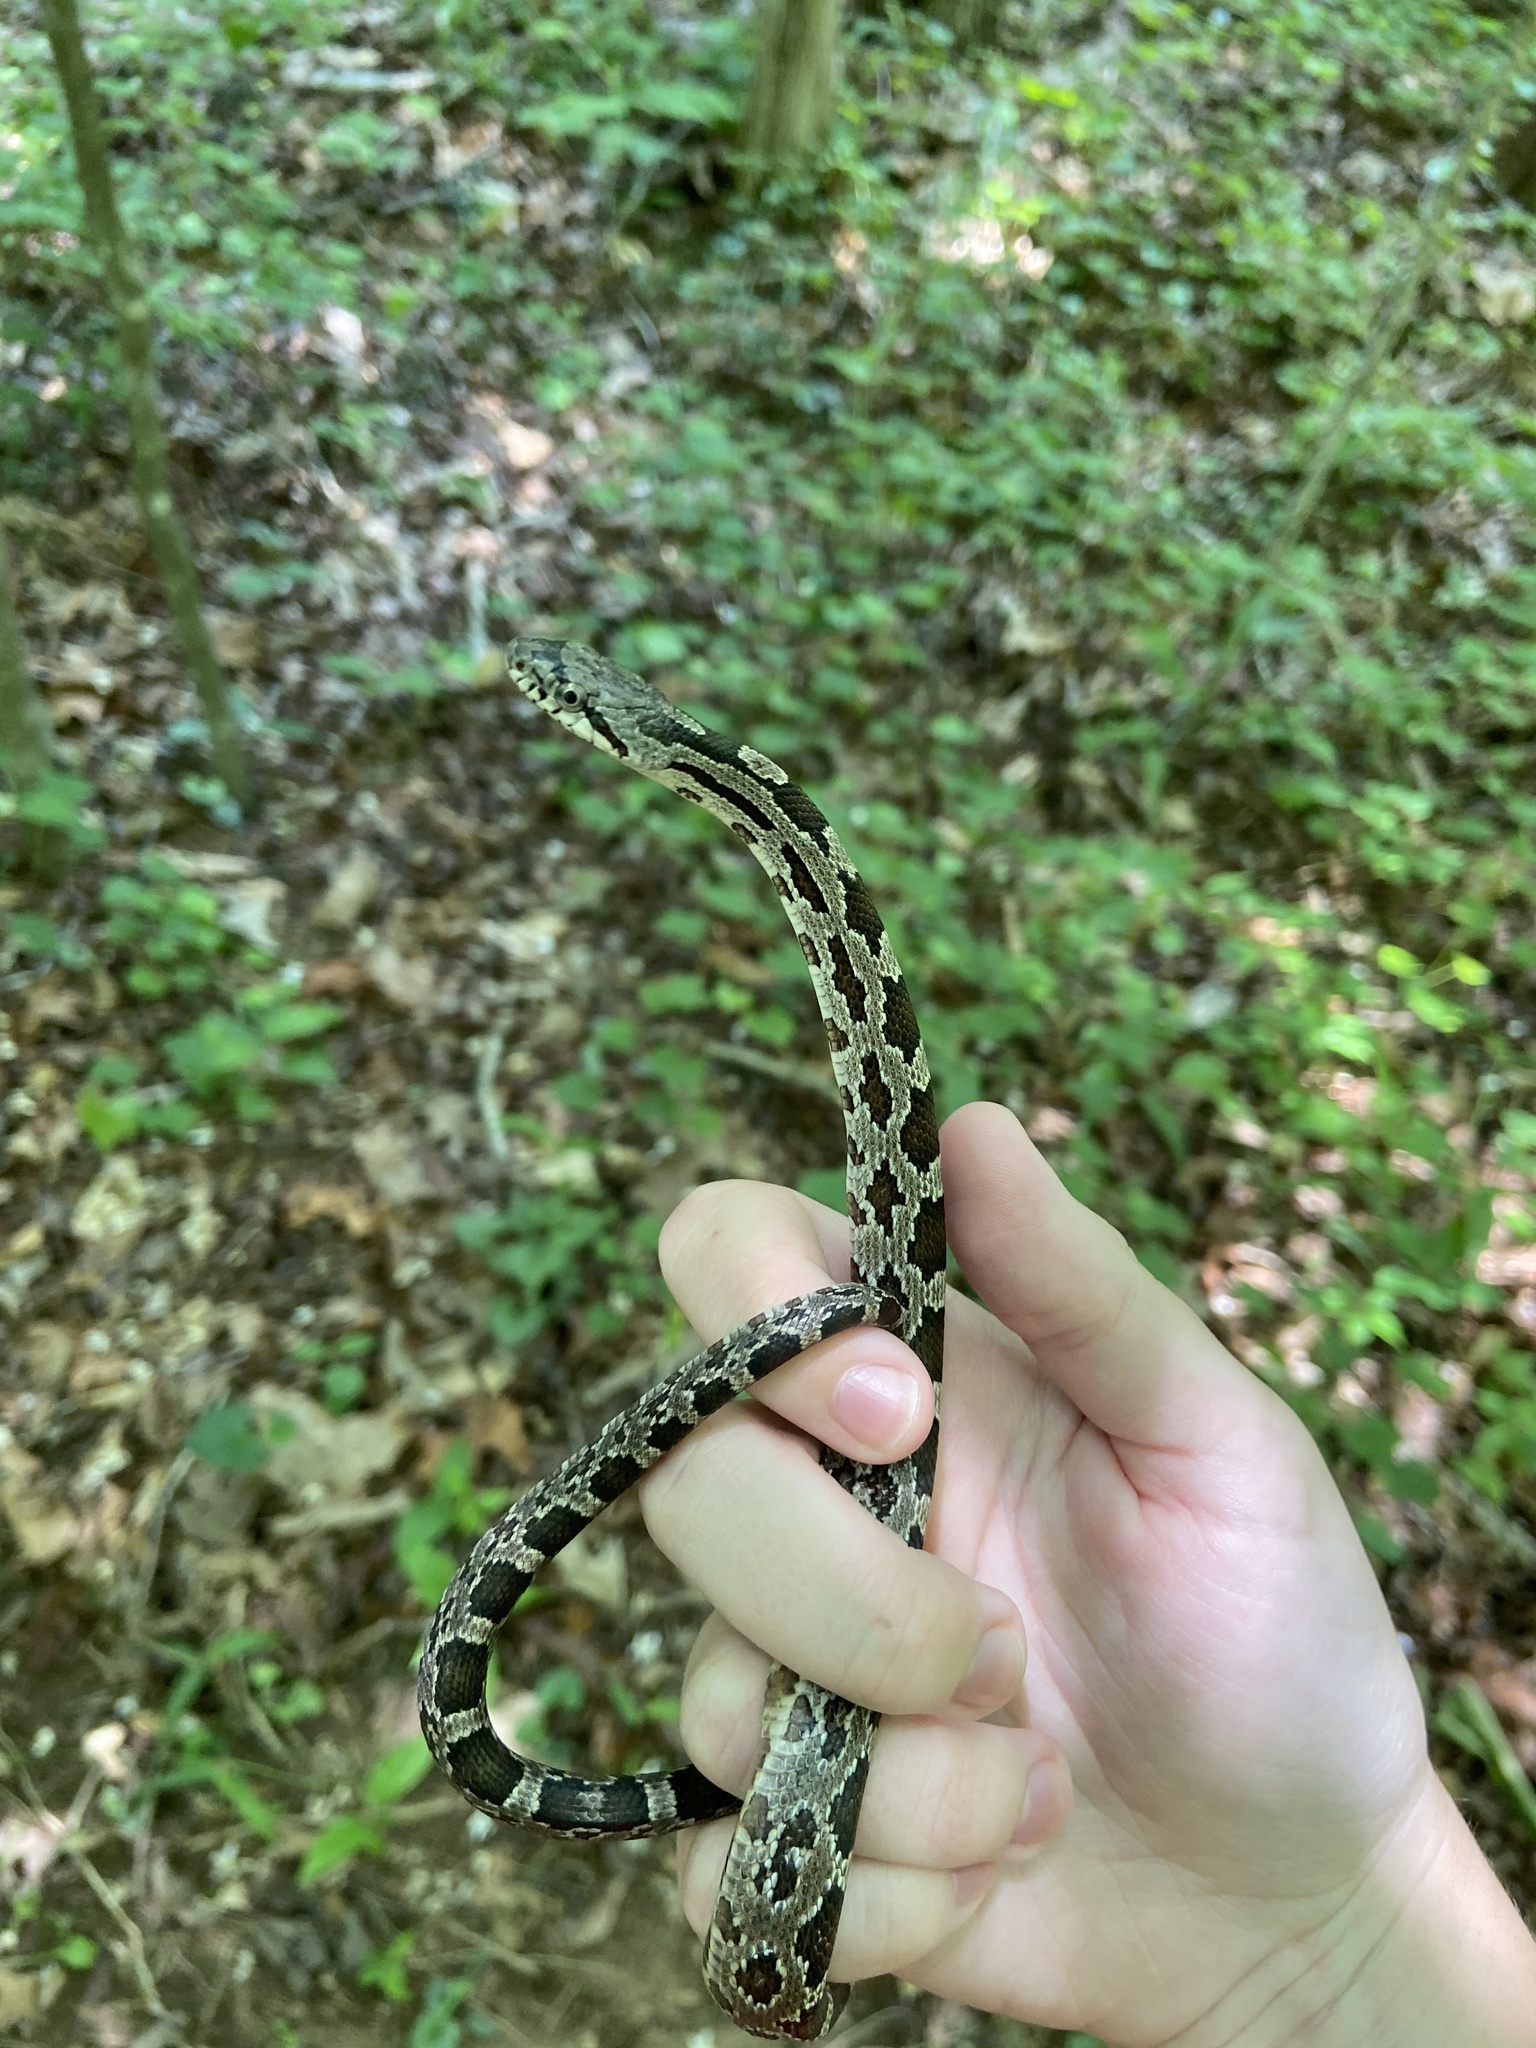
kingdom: Animalia
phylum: Chordata
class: Squamata
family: Colubridae
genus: Pantherophis
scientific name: Pantherophis alleghaniensis
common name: Eastern rat snake
